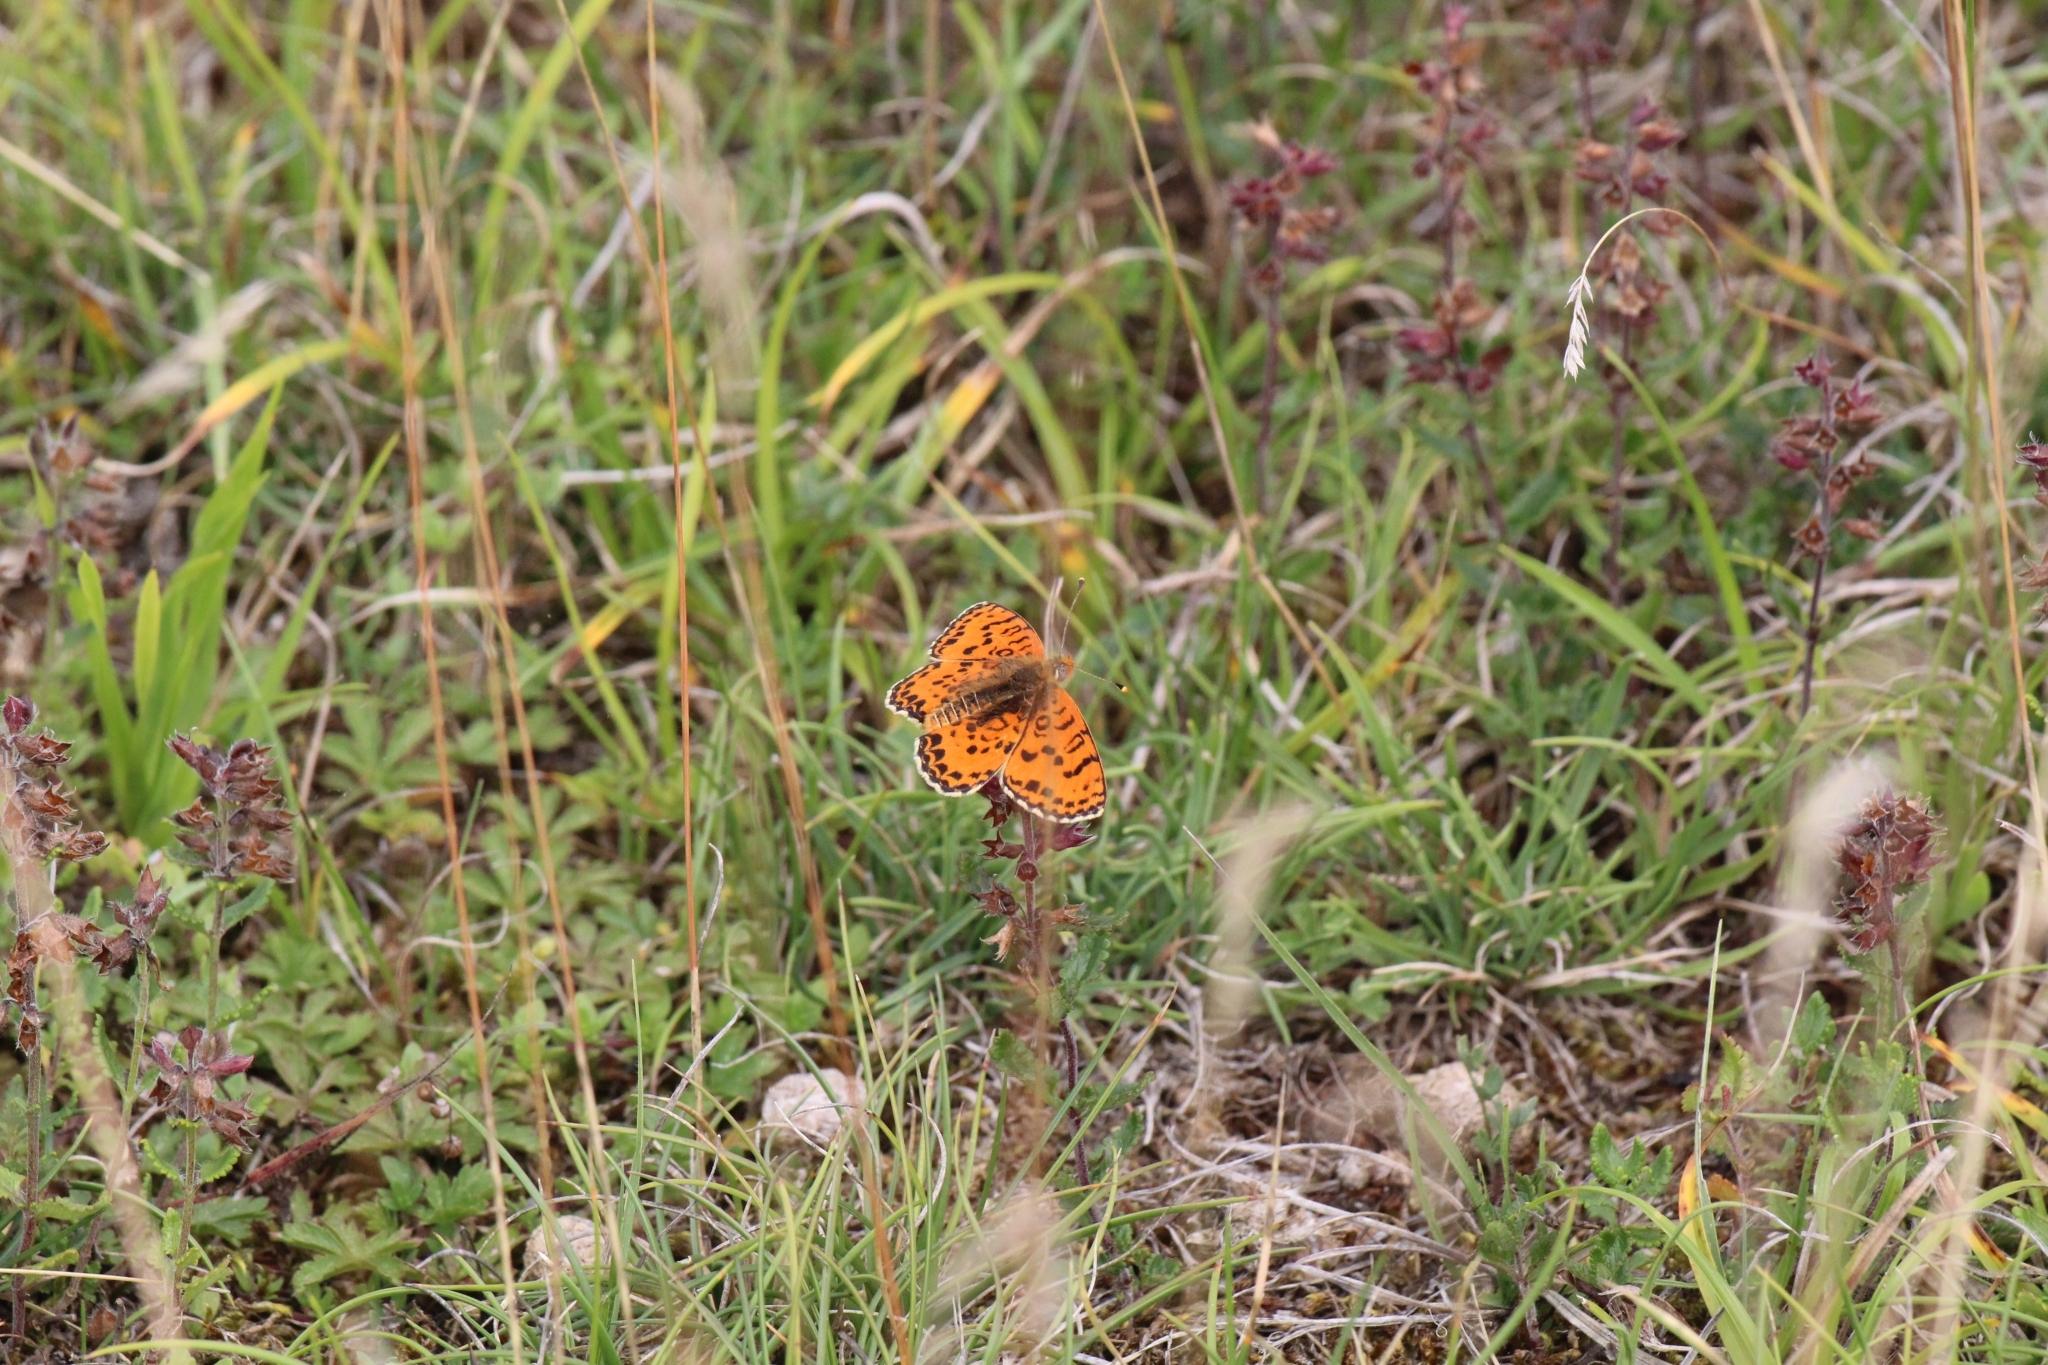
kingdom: Animalia
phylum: Arthropoda
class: Insecta
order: Lepidoptera
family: Nymphalidae
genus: Melitaea
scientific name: Melitaea didyma
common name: Spotted fritillary
